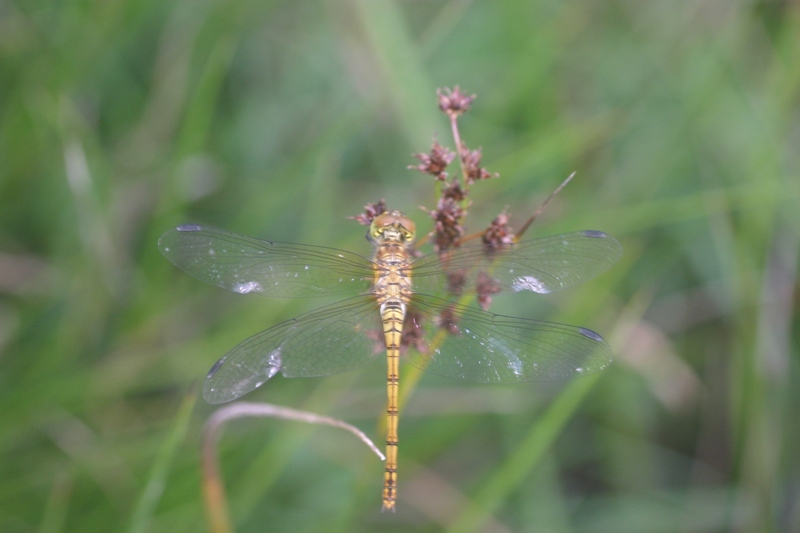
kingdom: Animalia
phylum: Arthropoda
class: Insecta
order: Odonata
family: Libellulidae
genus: Sympetrum
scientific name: Sympetrum striolatum
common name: Common darter
